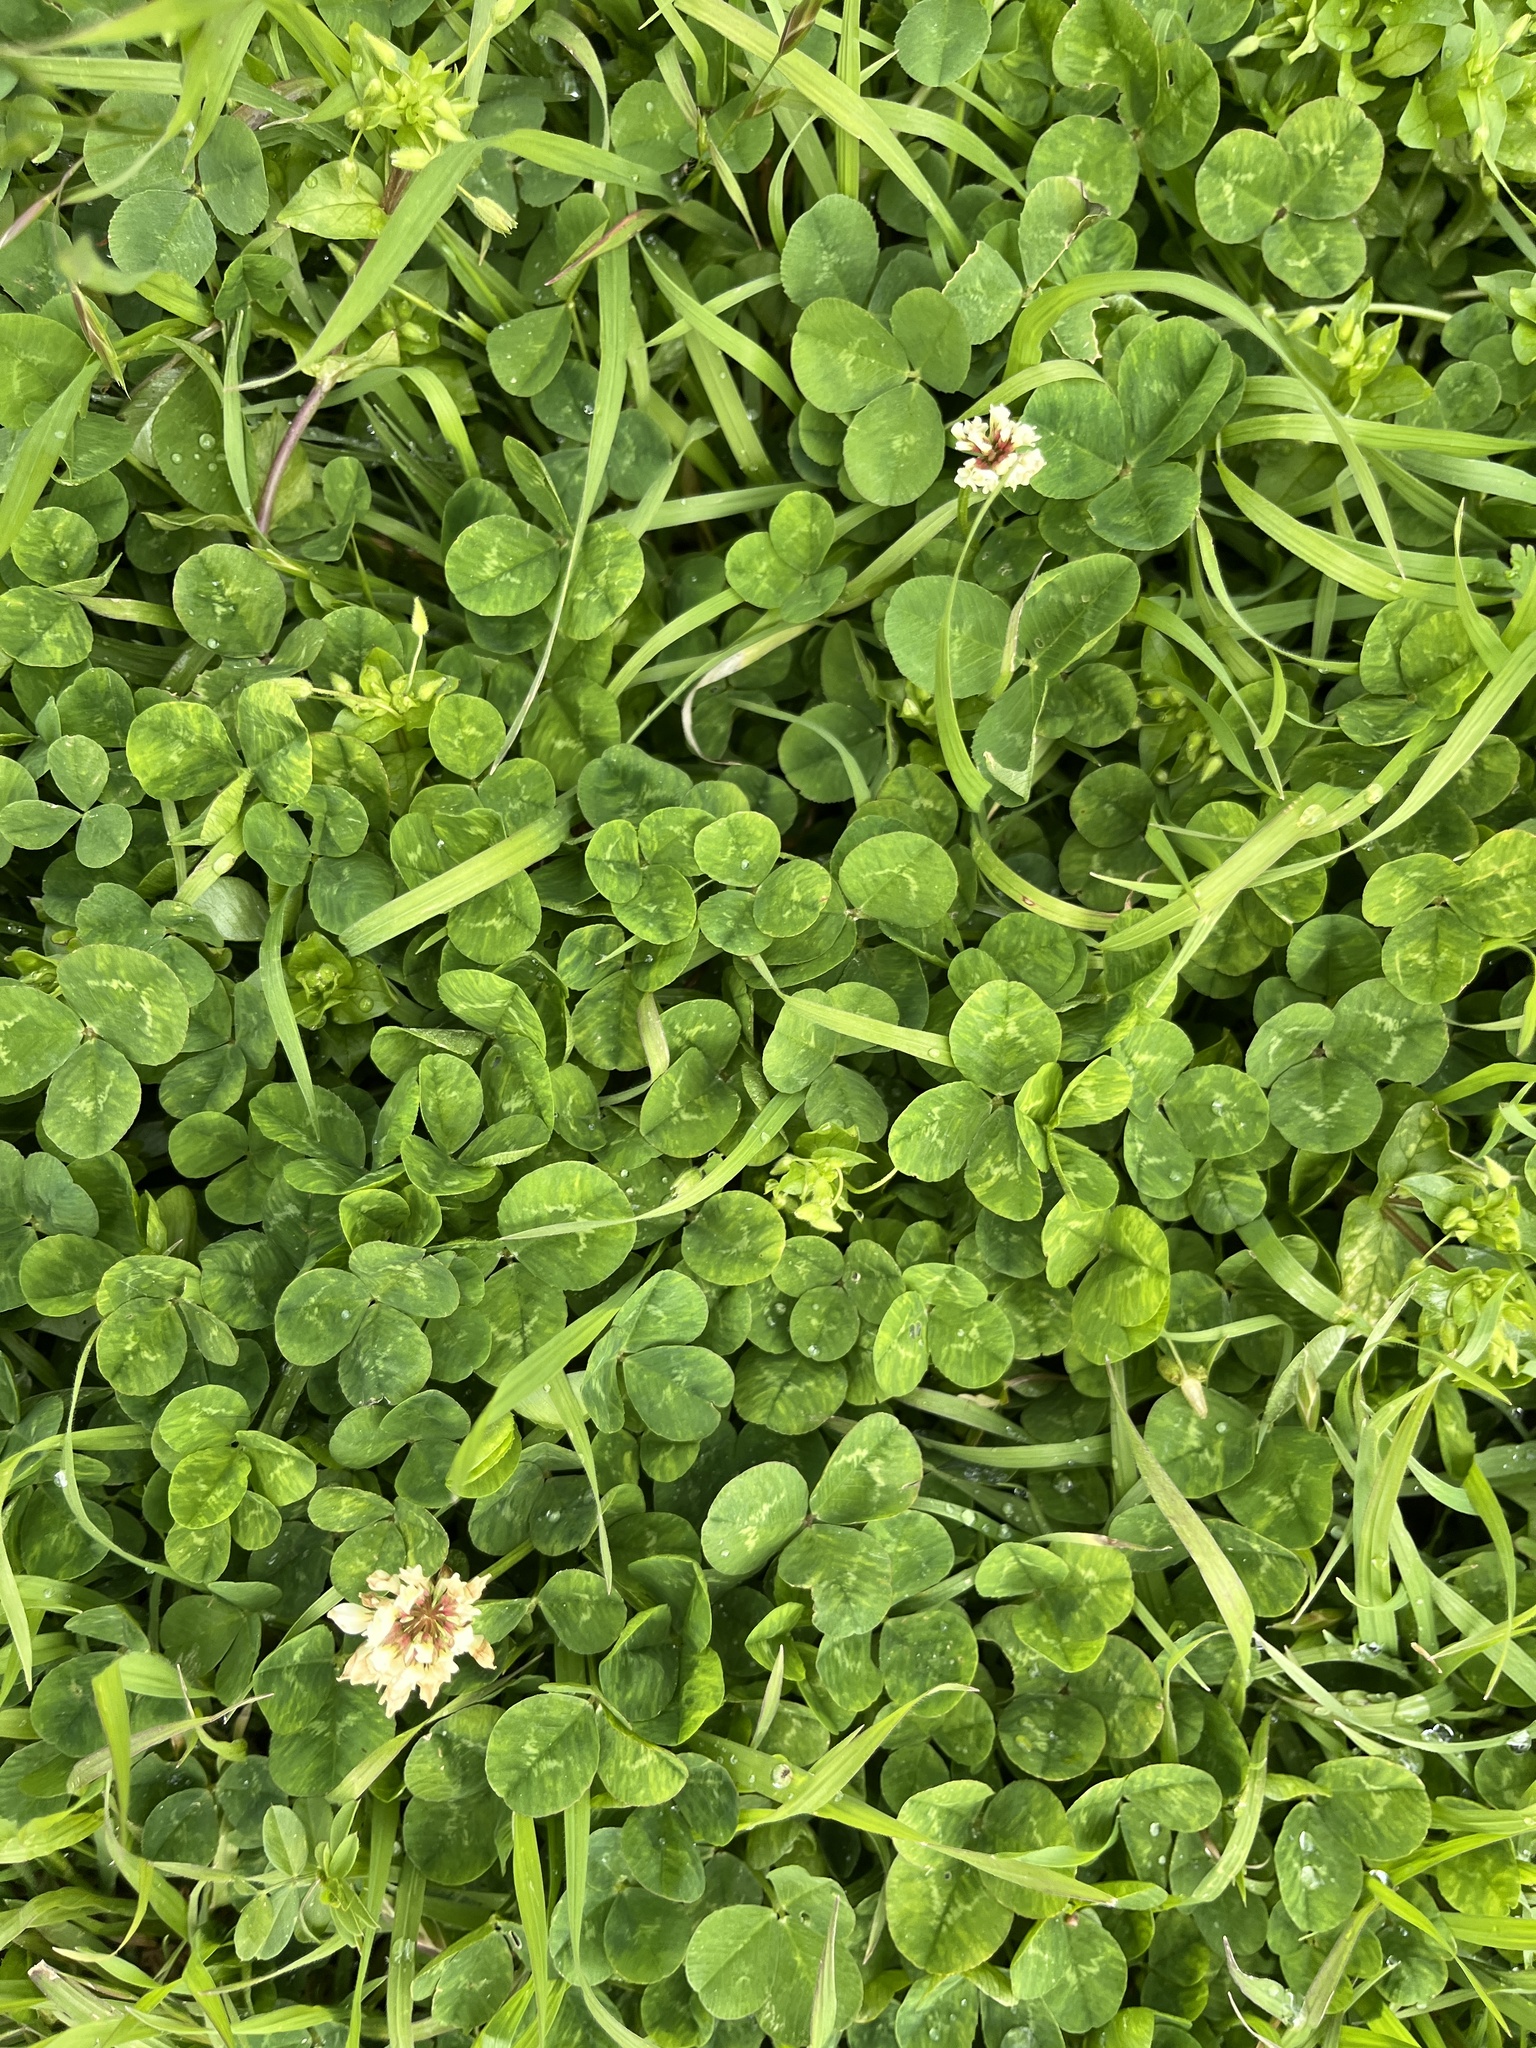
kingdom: Plantae
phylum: Tracheophyta
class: Magnoliopsida
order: Fabales
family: Fabaceae
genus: Trifolium
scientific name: Trifolium repens
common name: White clover
